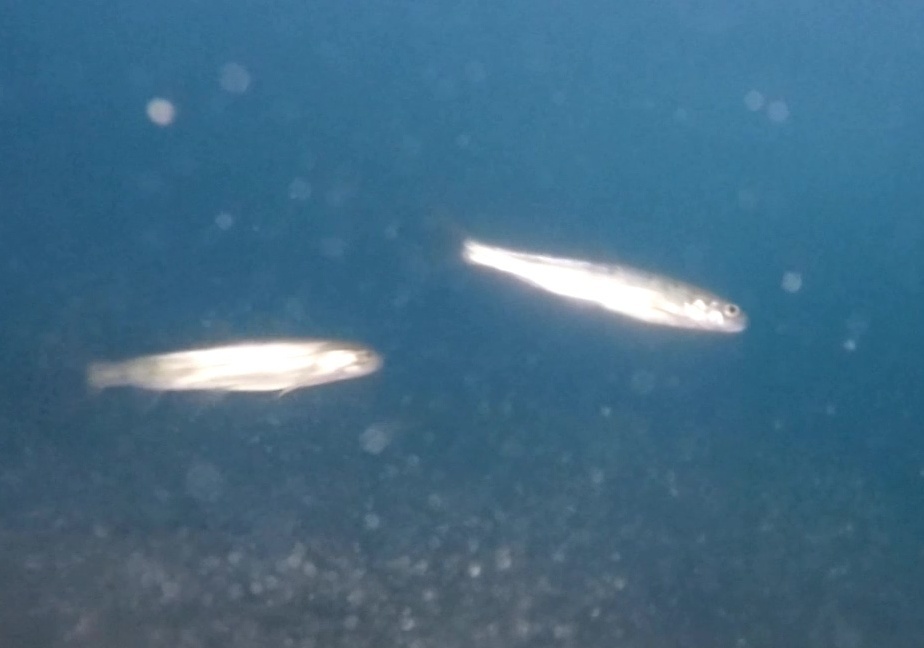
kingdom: Animalia
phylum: Chordata
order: Salmoniformes
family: Salmonidae
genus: Salvelinus
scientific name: Salvelinus alpinus
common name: Charr
